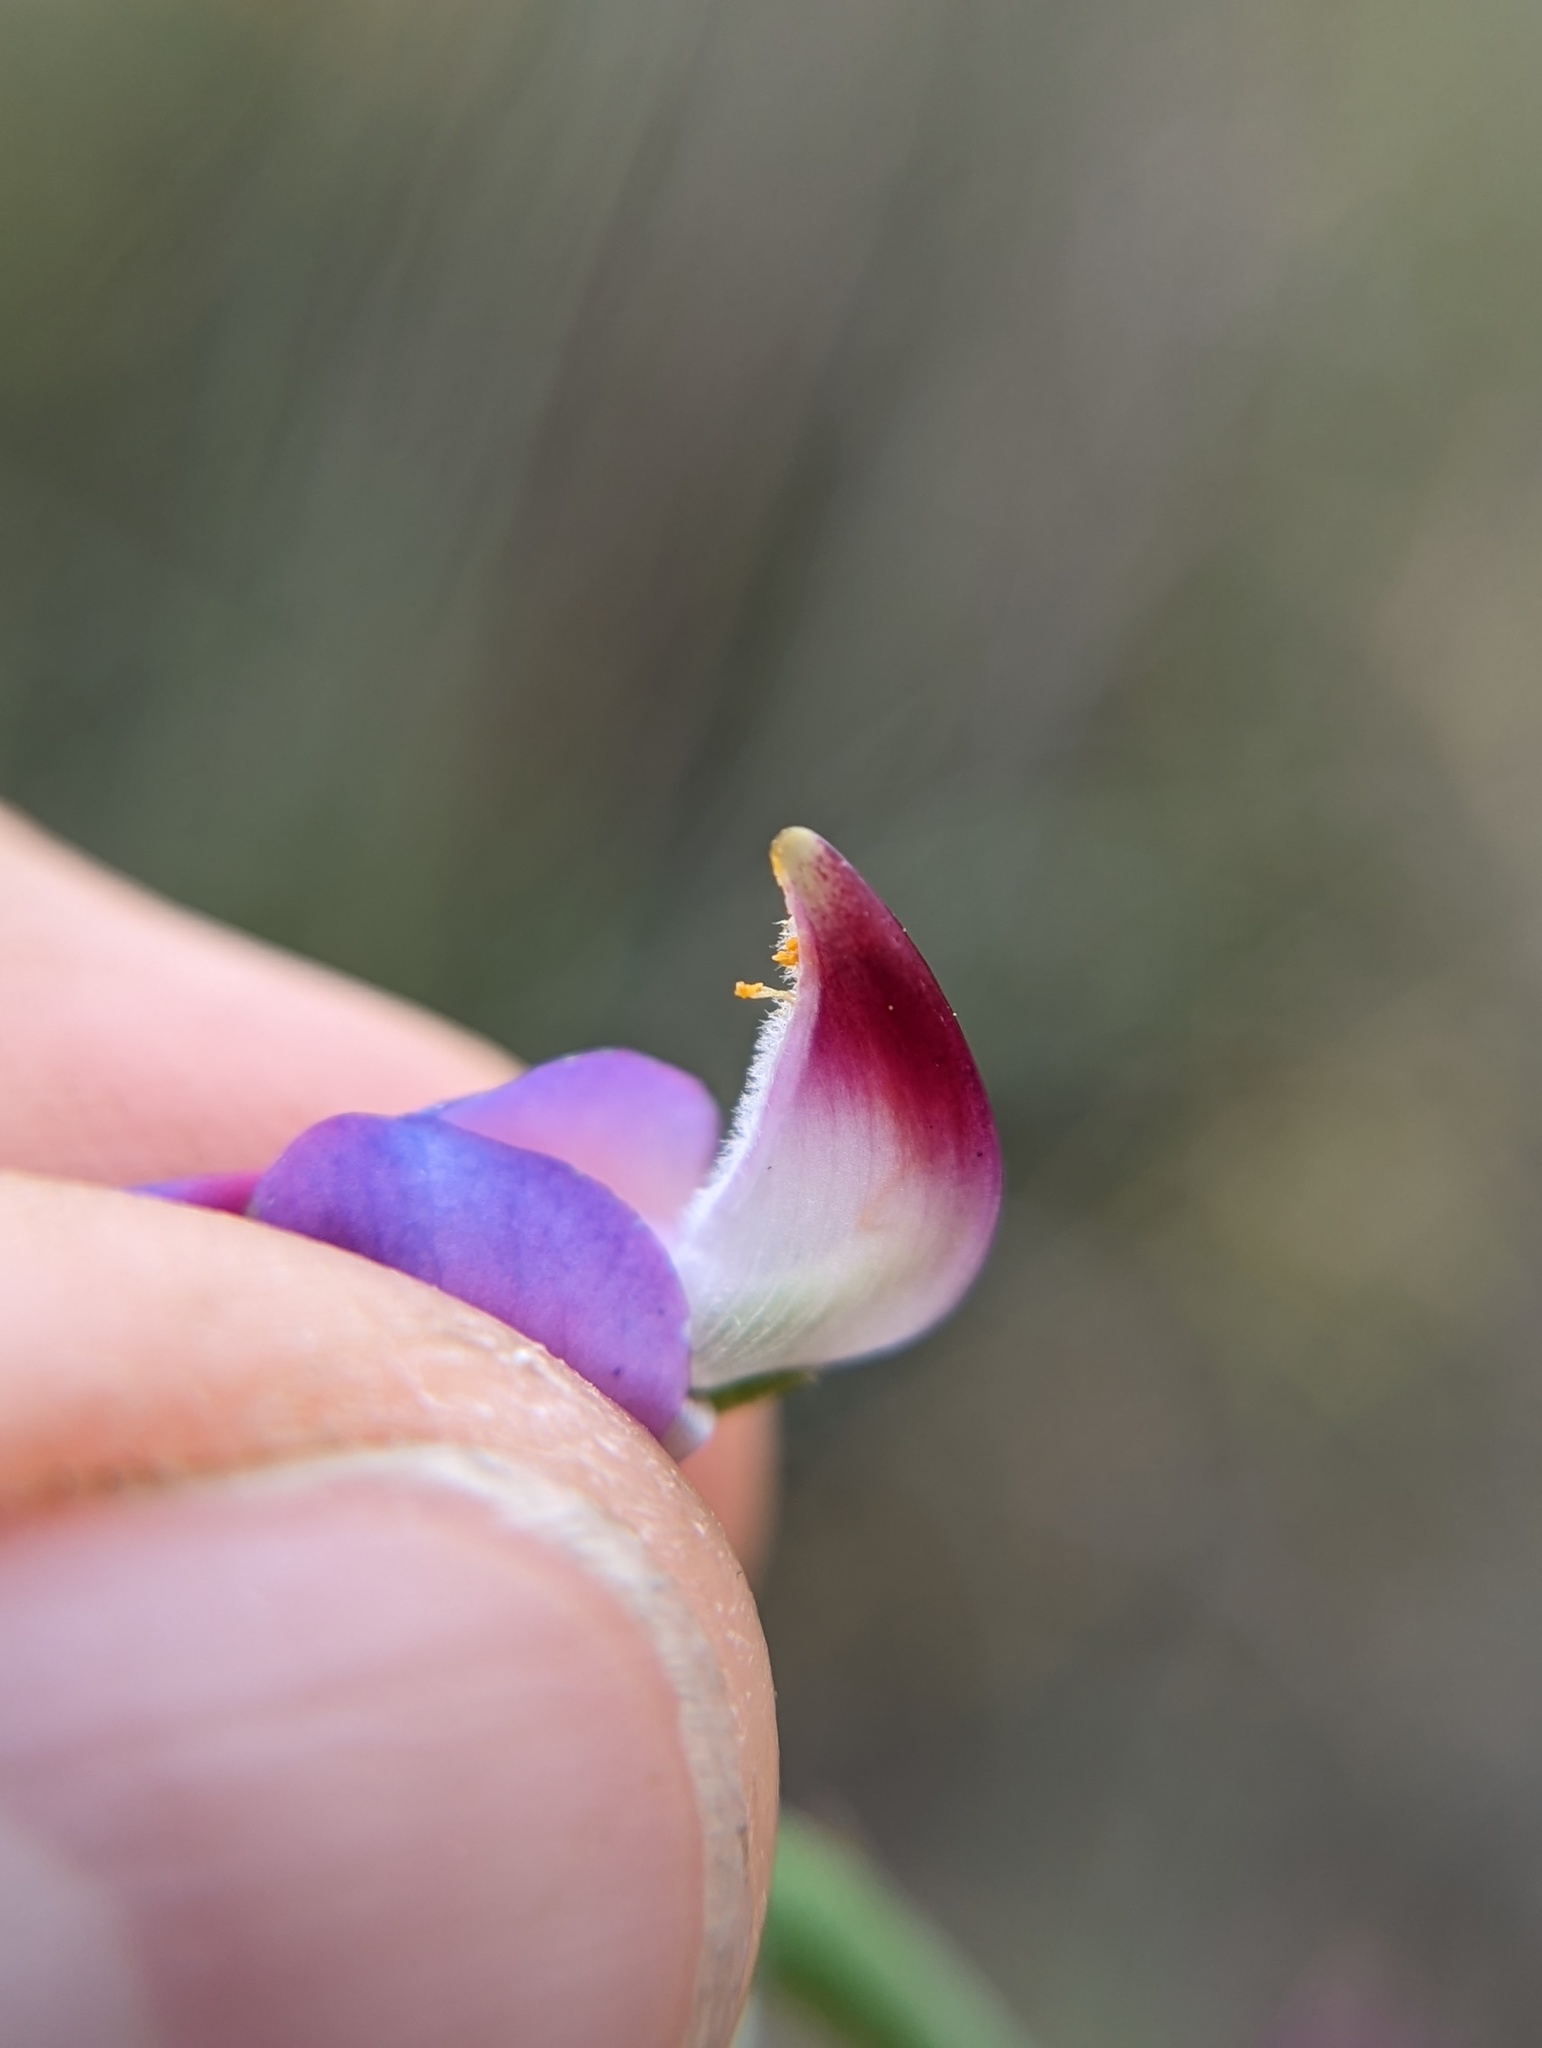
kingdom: Plantae
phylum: Tracheophyta
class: Magnoliopsida
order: Fabales
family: Fabaceae
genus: Lupinus
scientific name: Lupinus truncatus
